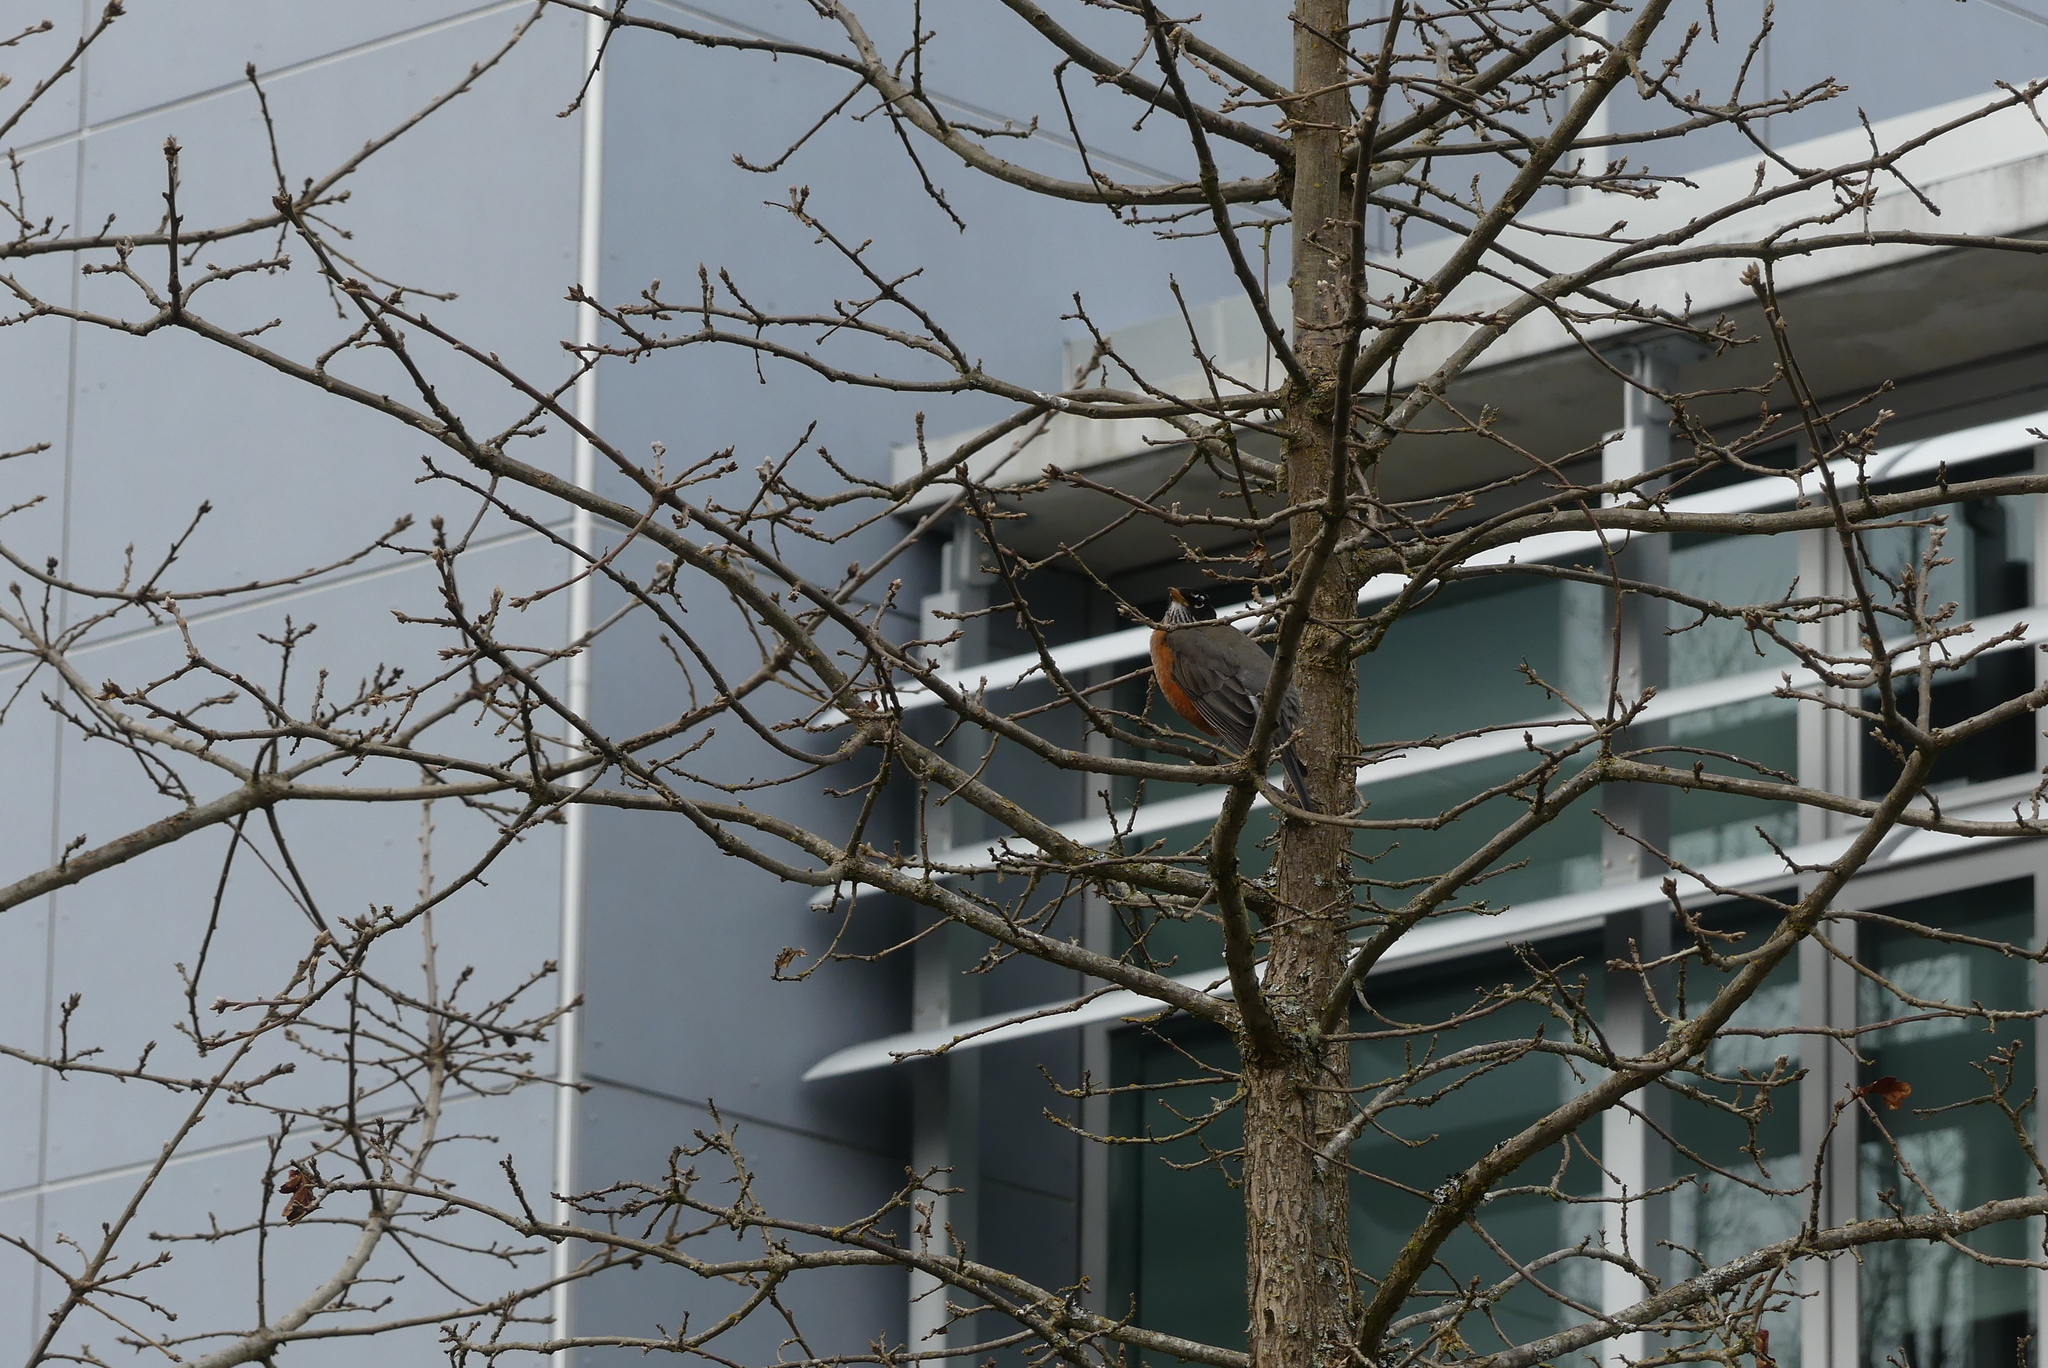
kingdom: Animalia
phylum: Chordata
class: Aves
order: Passeriformes
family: Turdidae
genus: Turdus
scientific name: Turdus migratorius
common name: American robin
